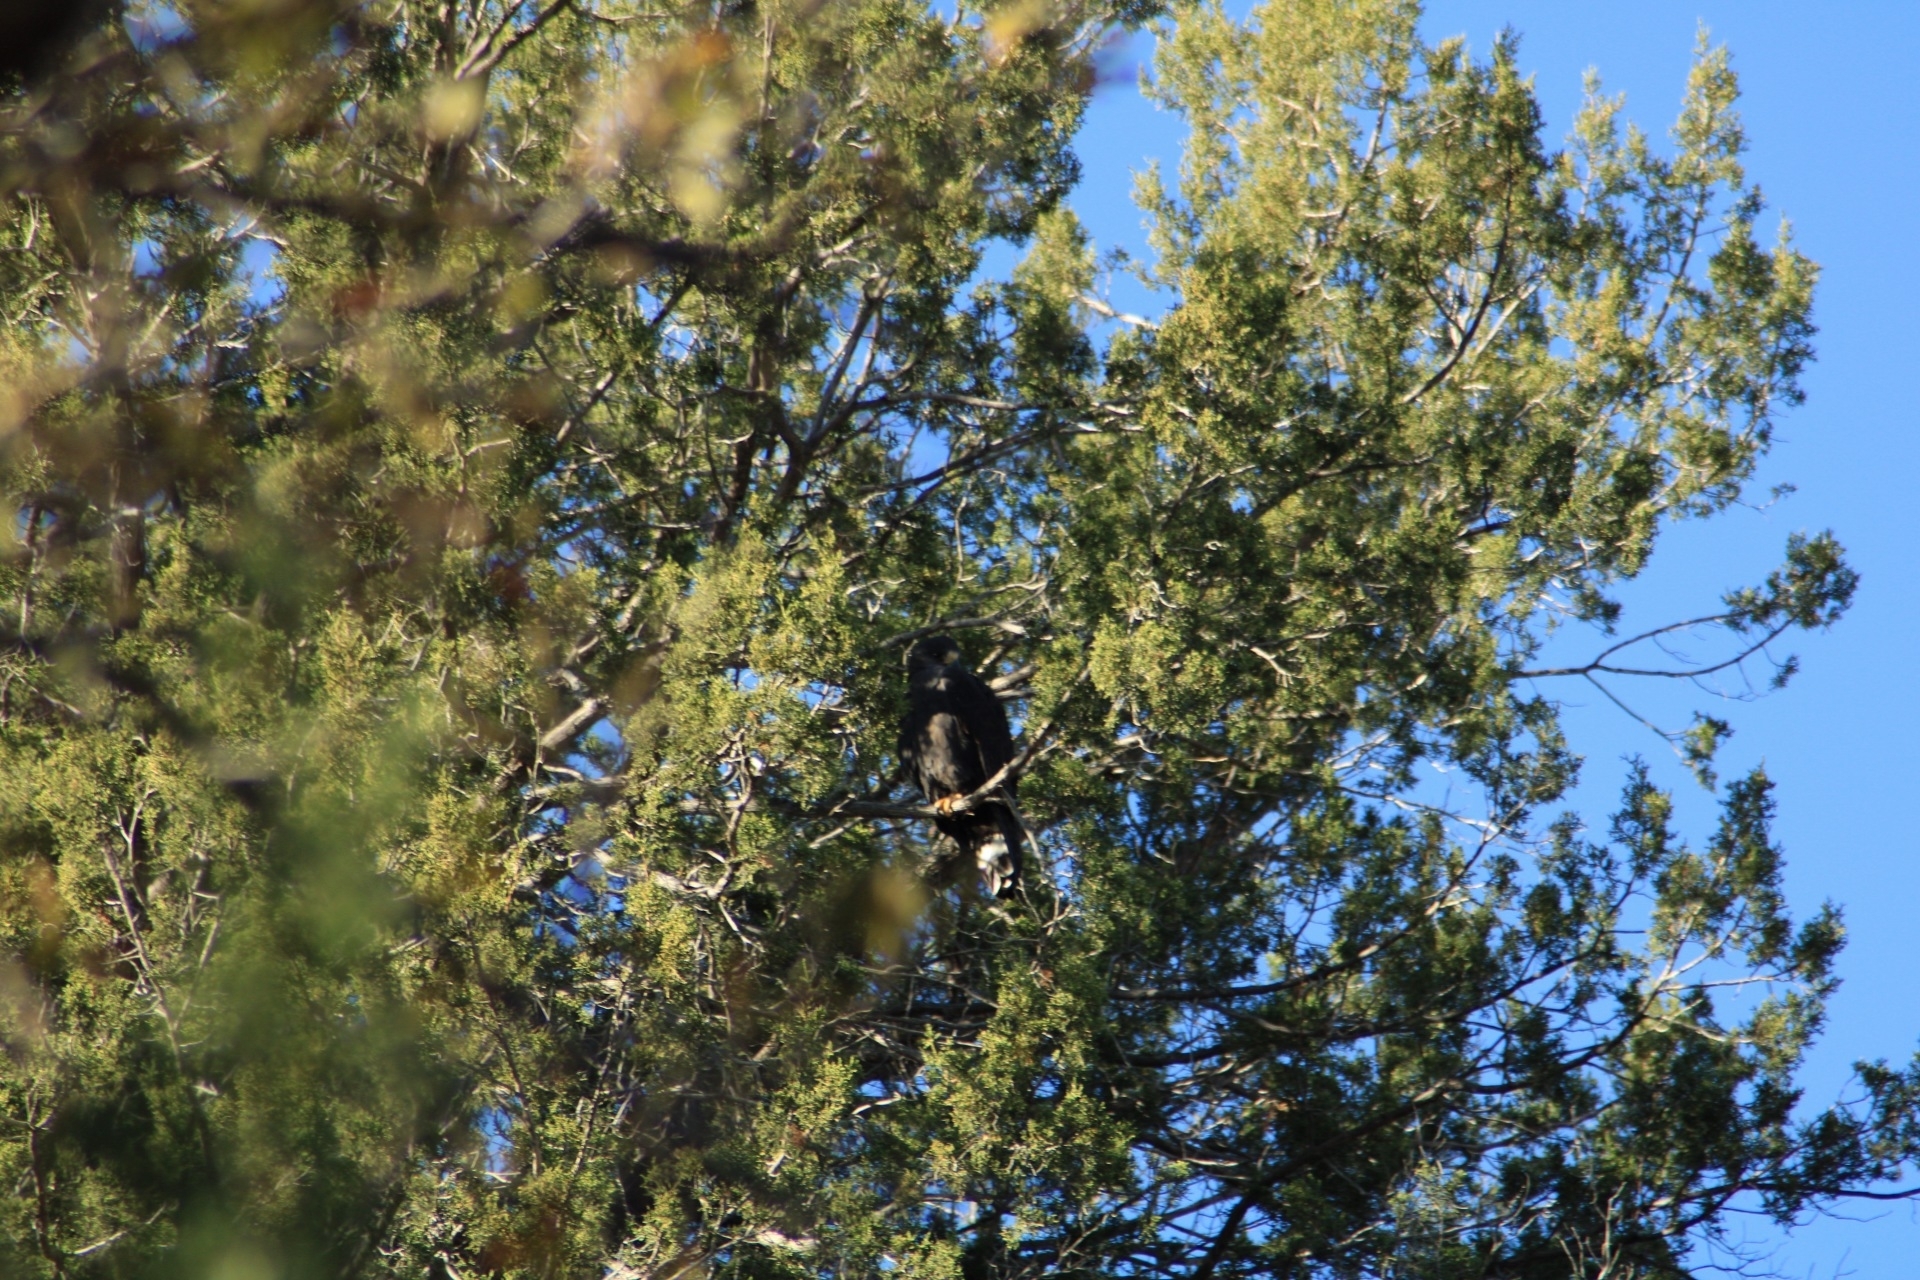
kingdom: Animalia
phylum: Chordata
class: Aves
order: Accipitriformes
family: Accipitridae
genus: Buteo
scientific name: Buteo albonotatus
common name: Zone-tailed hawk
